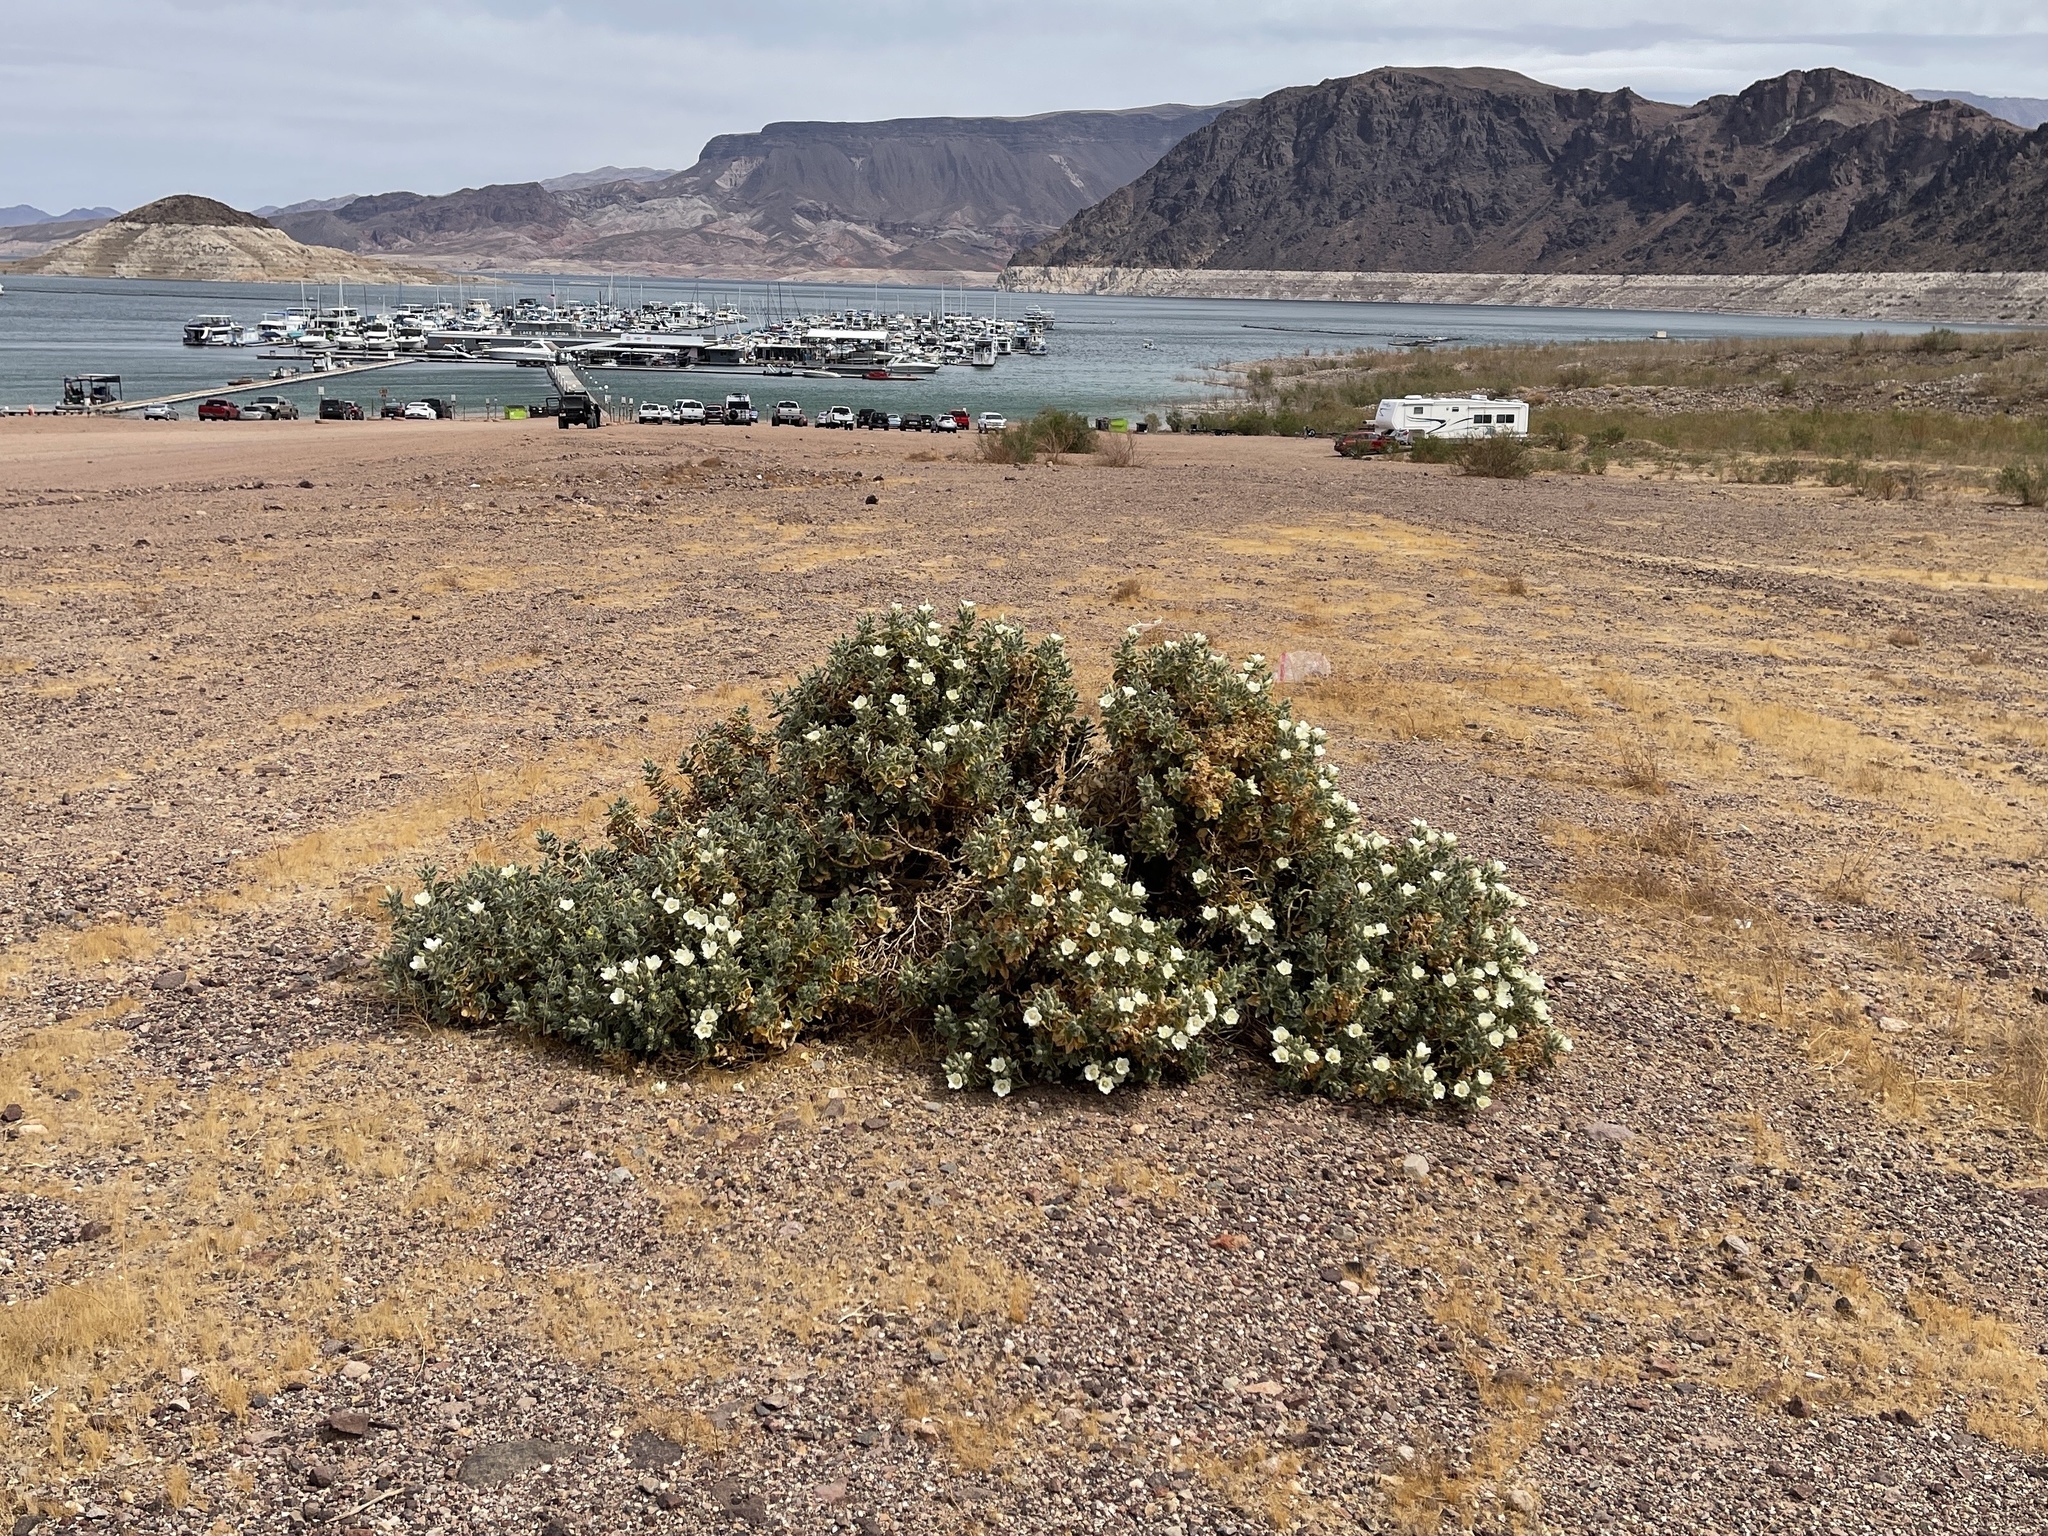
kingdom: Plantae
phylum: Tracheophyta
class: Magnoliopsida
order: Cornales
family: Loasaceae
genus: Eucnide
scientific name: Eucnide urens
